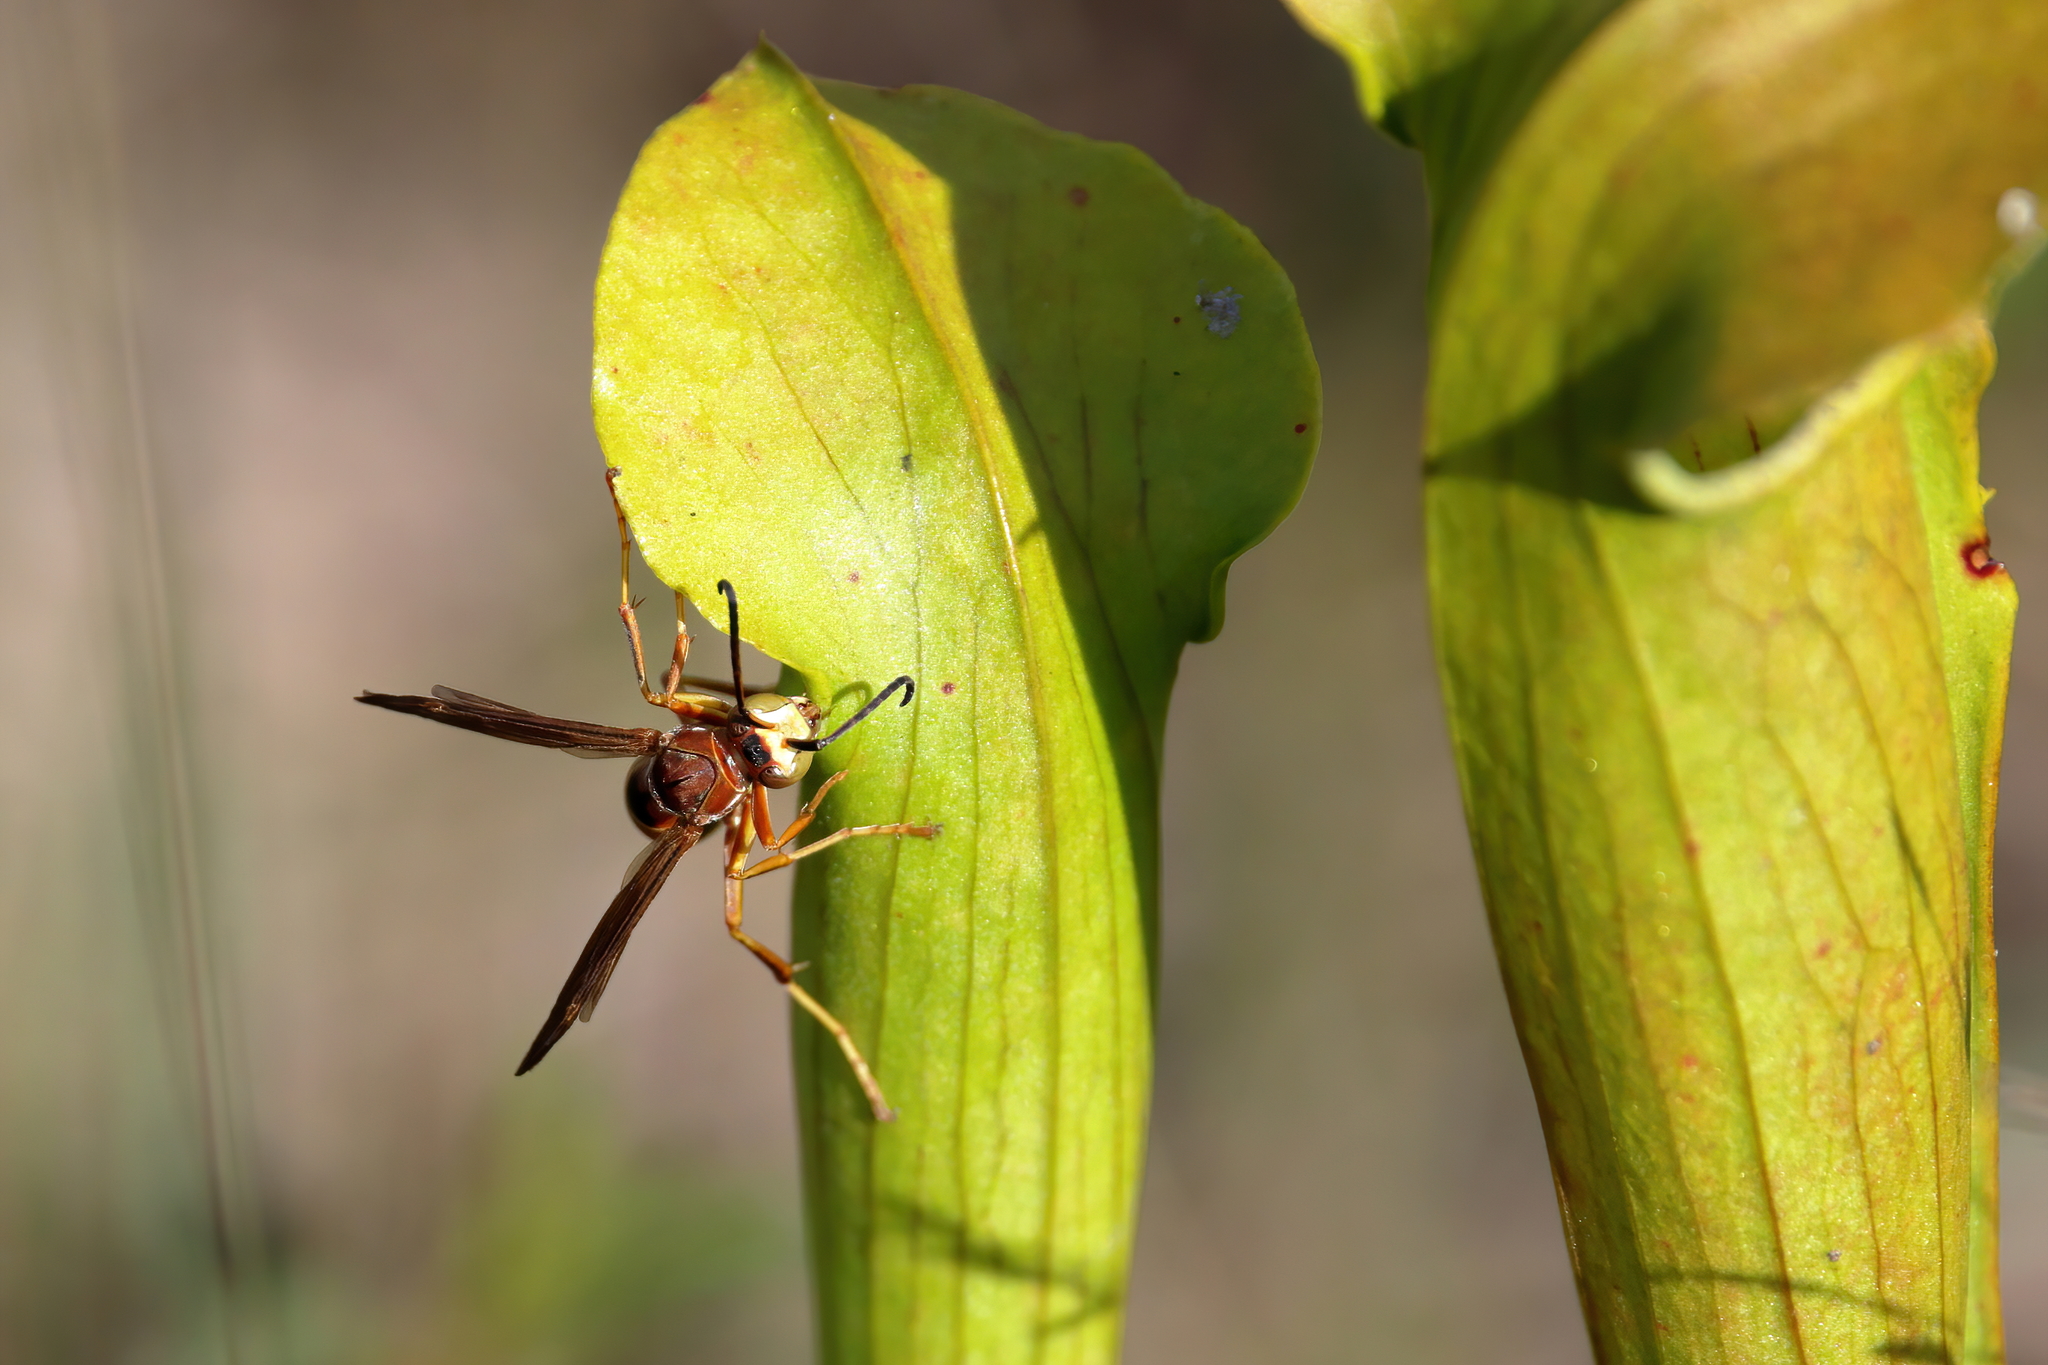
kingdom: Animalia
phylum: Arthropoda
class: Insecta
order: Hymenoptera
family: Eumenidae
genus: Polistes
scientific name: Polistes fuscatus
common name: Dark paper wasp
